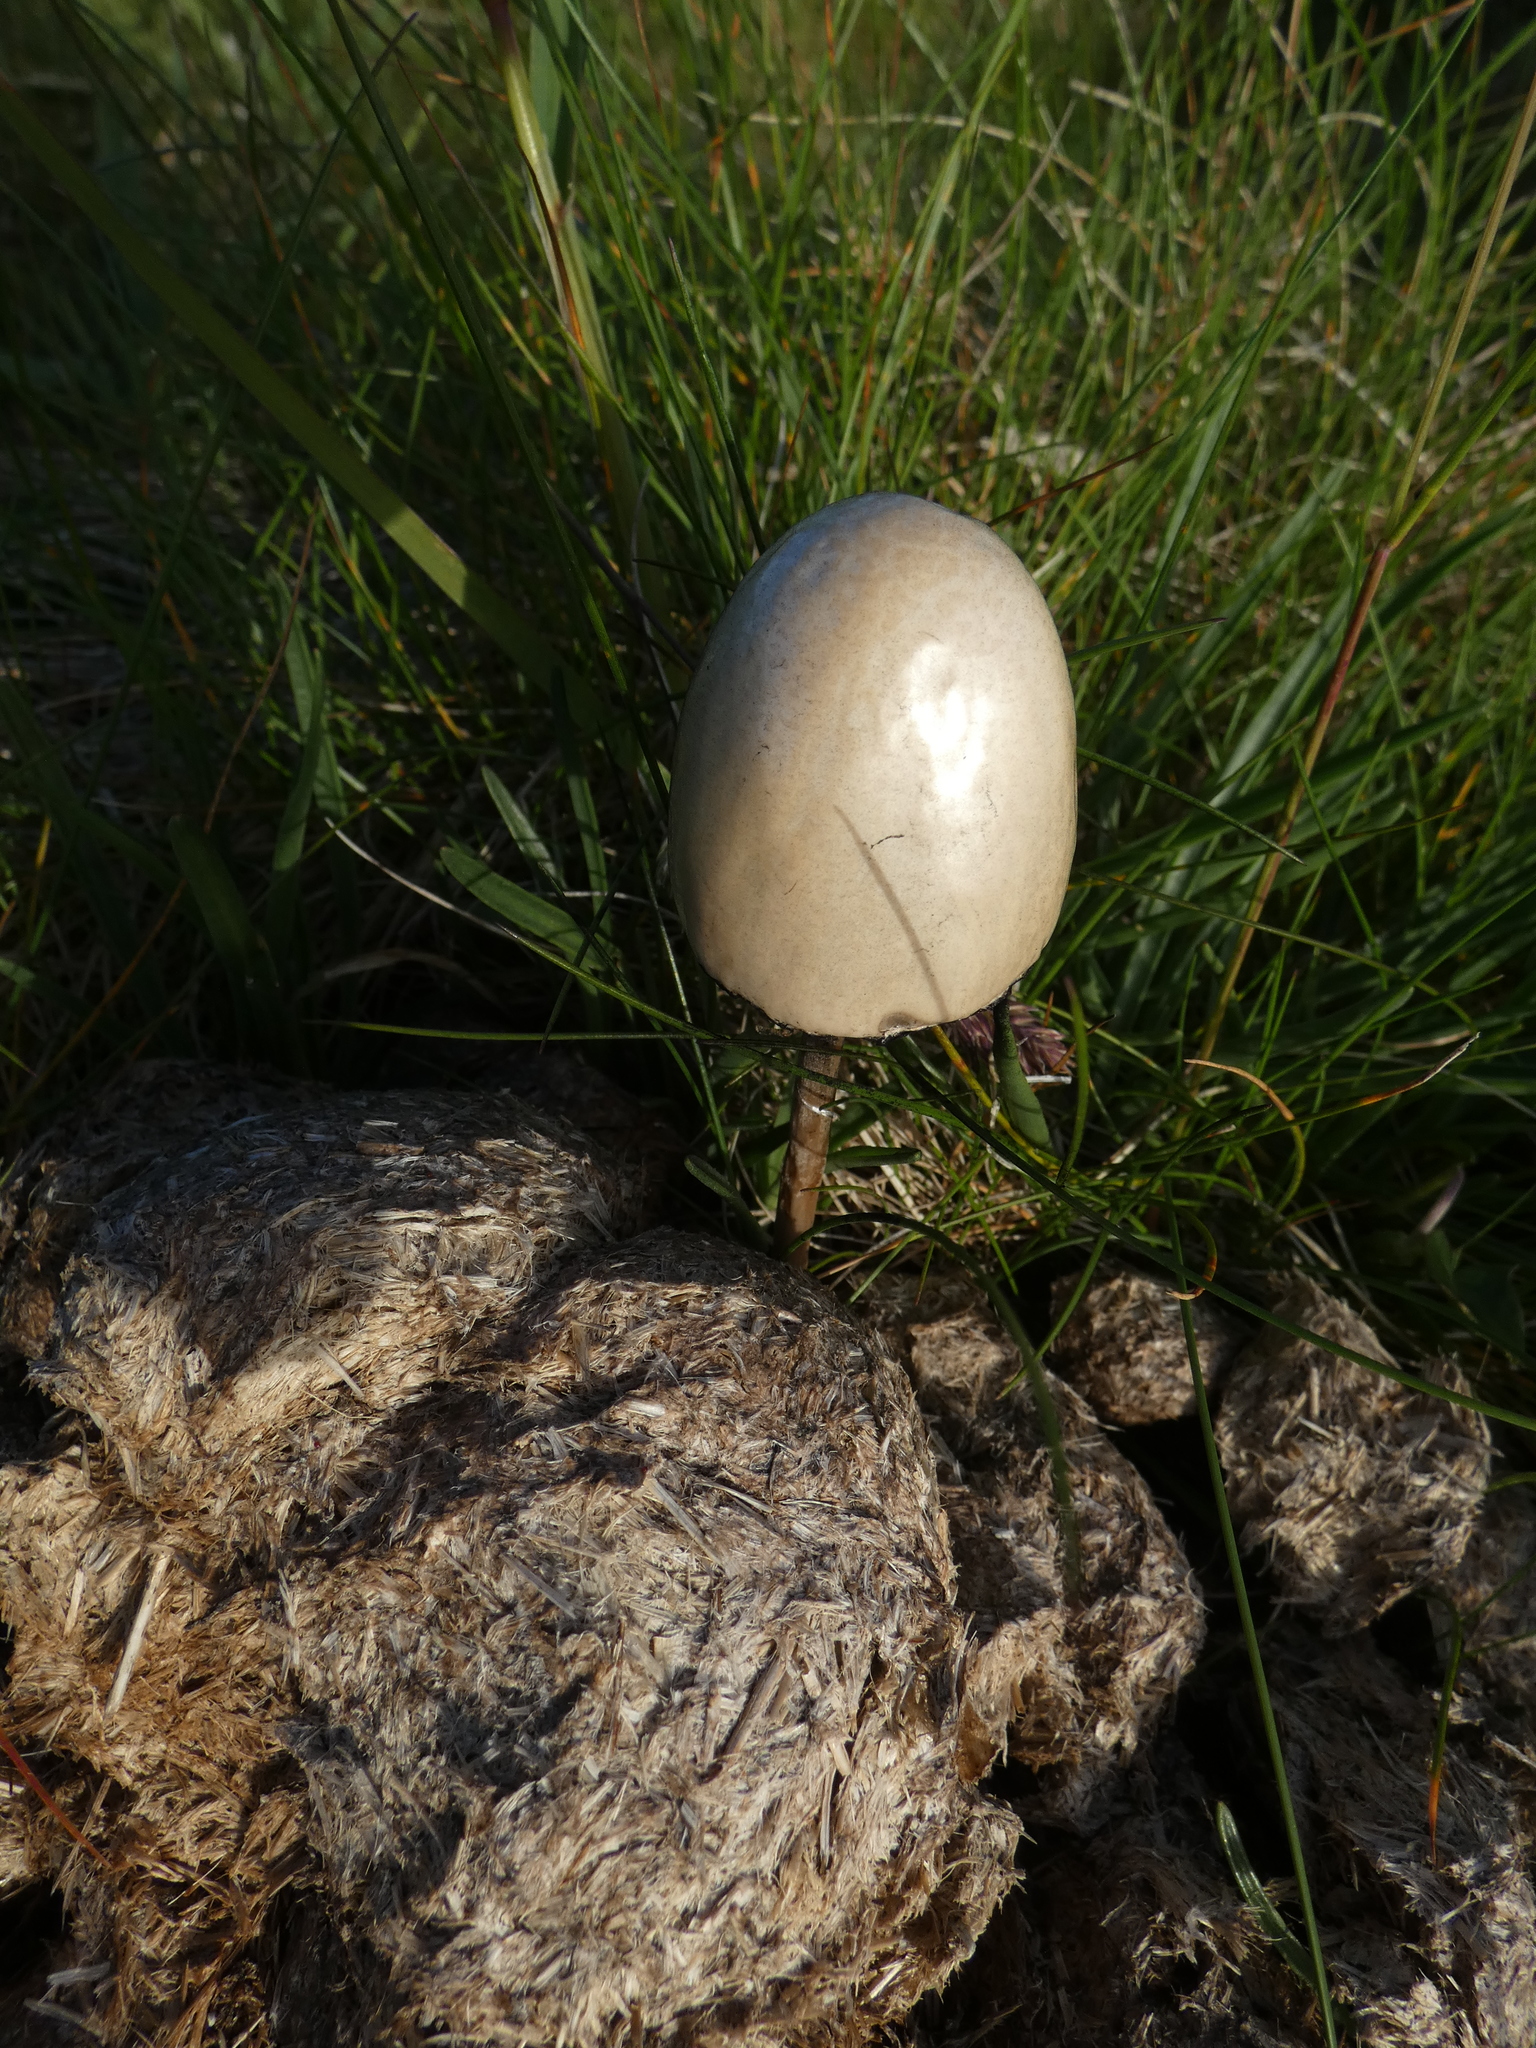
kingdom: Fungi
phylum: Basidiomycota
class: Agaricomycetes
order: Agaricales
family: Bolbitiaceae
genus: Panaeolus
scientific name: Panaeolus semiovatus
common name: Shiny mottlegill
